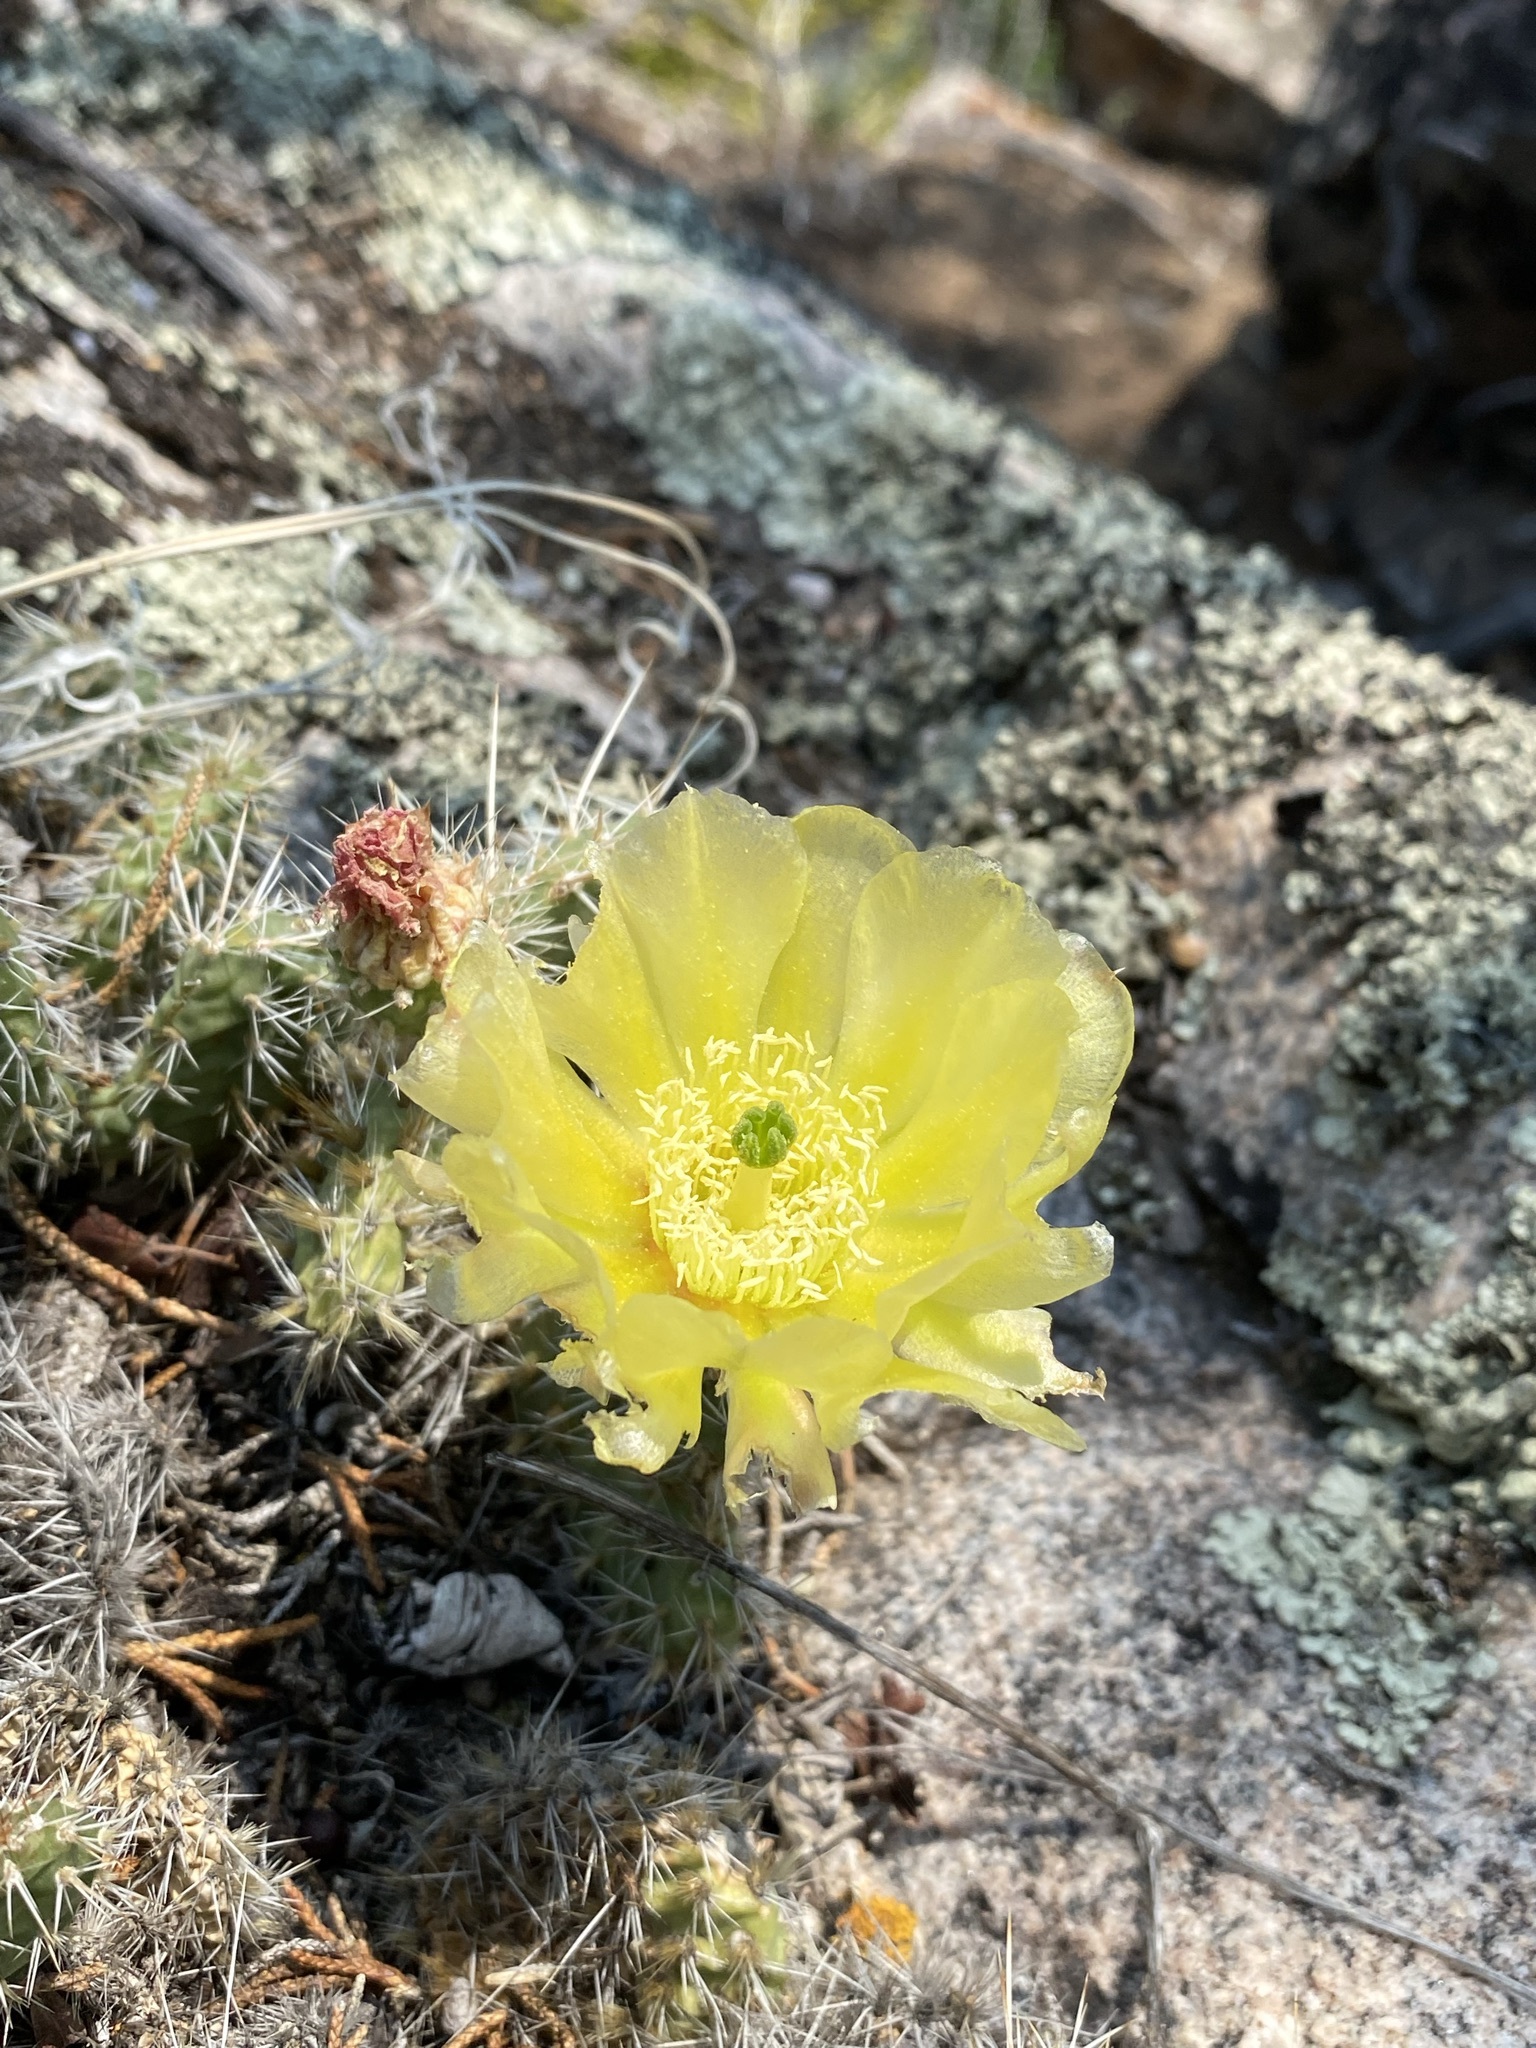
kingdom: Plantae
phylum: Tracheophyta
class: Magnoliopsida
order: Caryophyllales
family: Cactaceae
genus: Opuntia
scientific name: Opuntia polyacantha
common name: Plains prickly-pear
